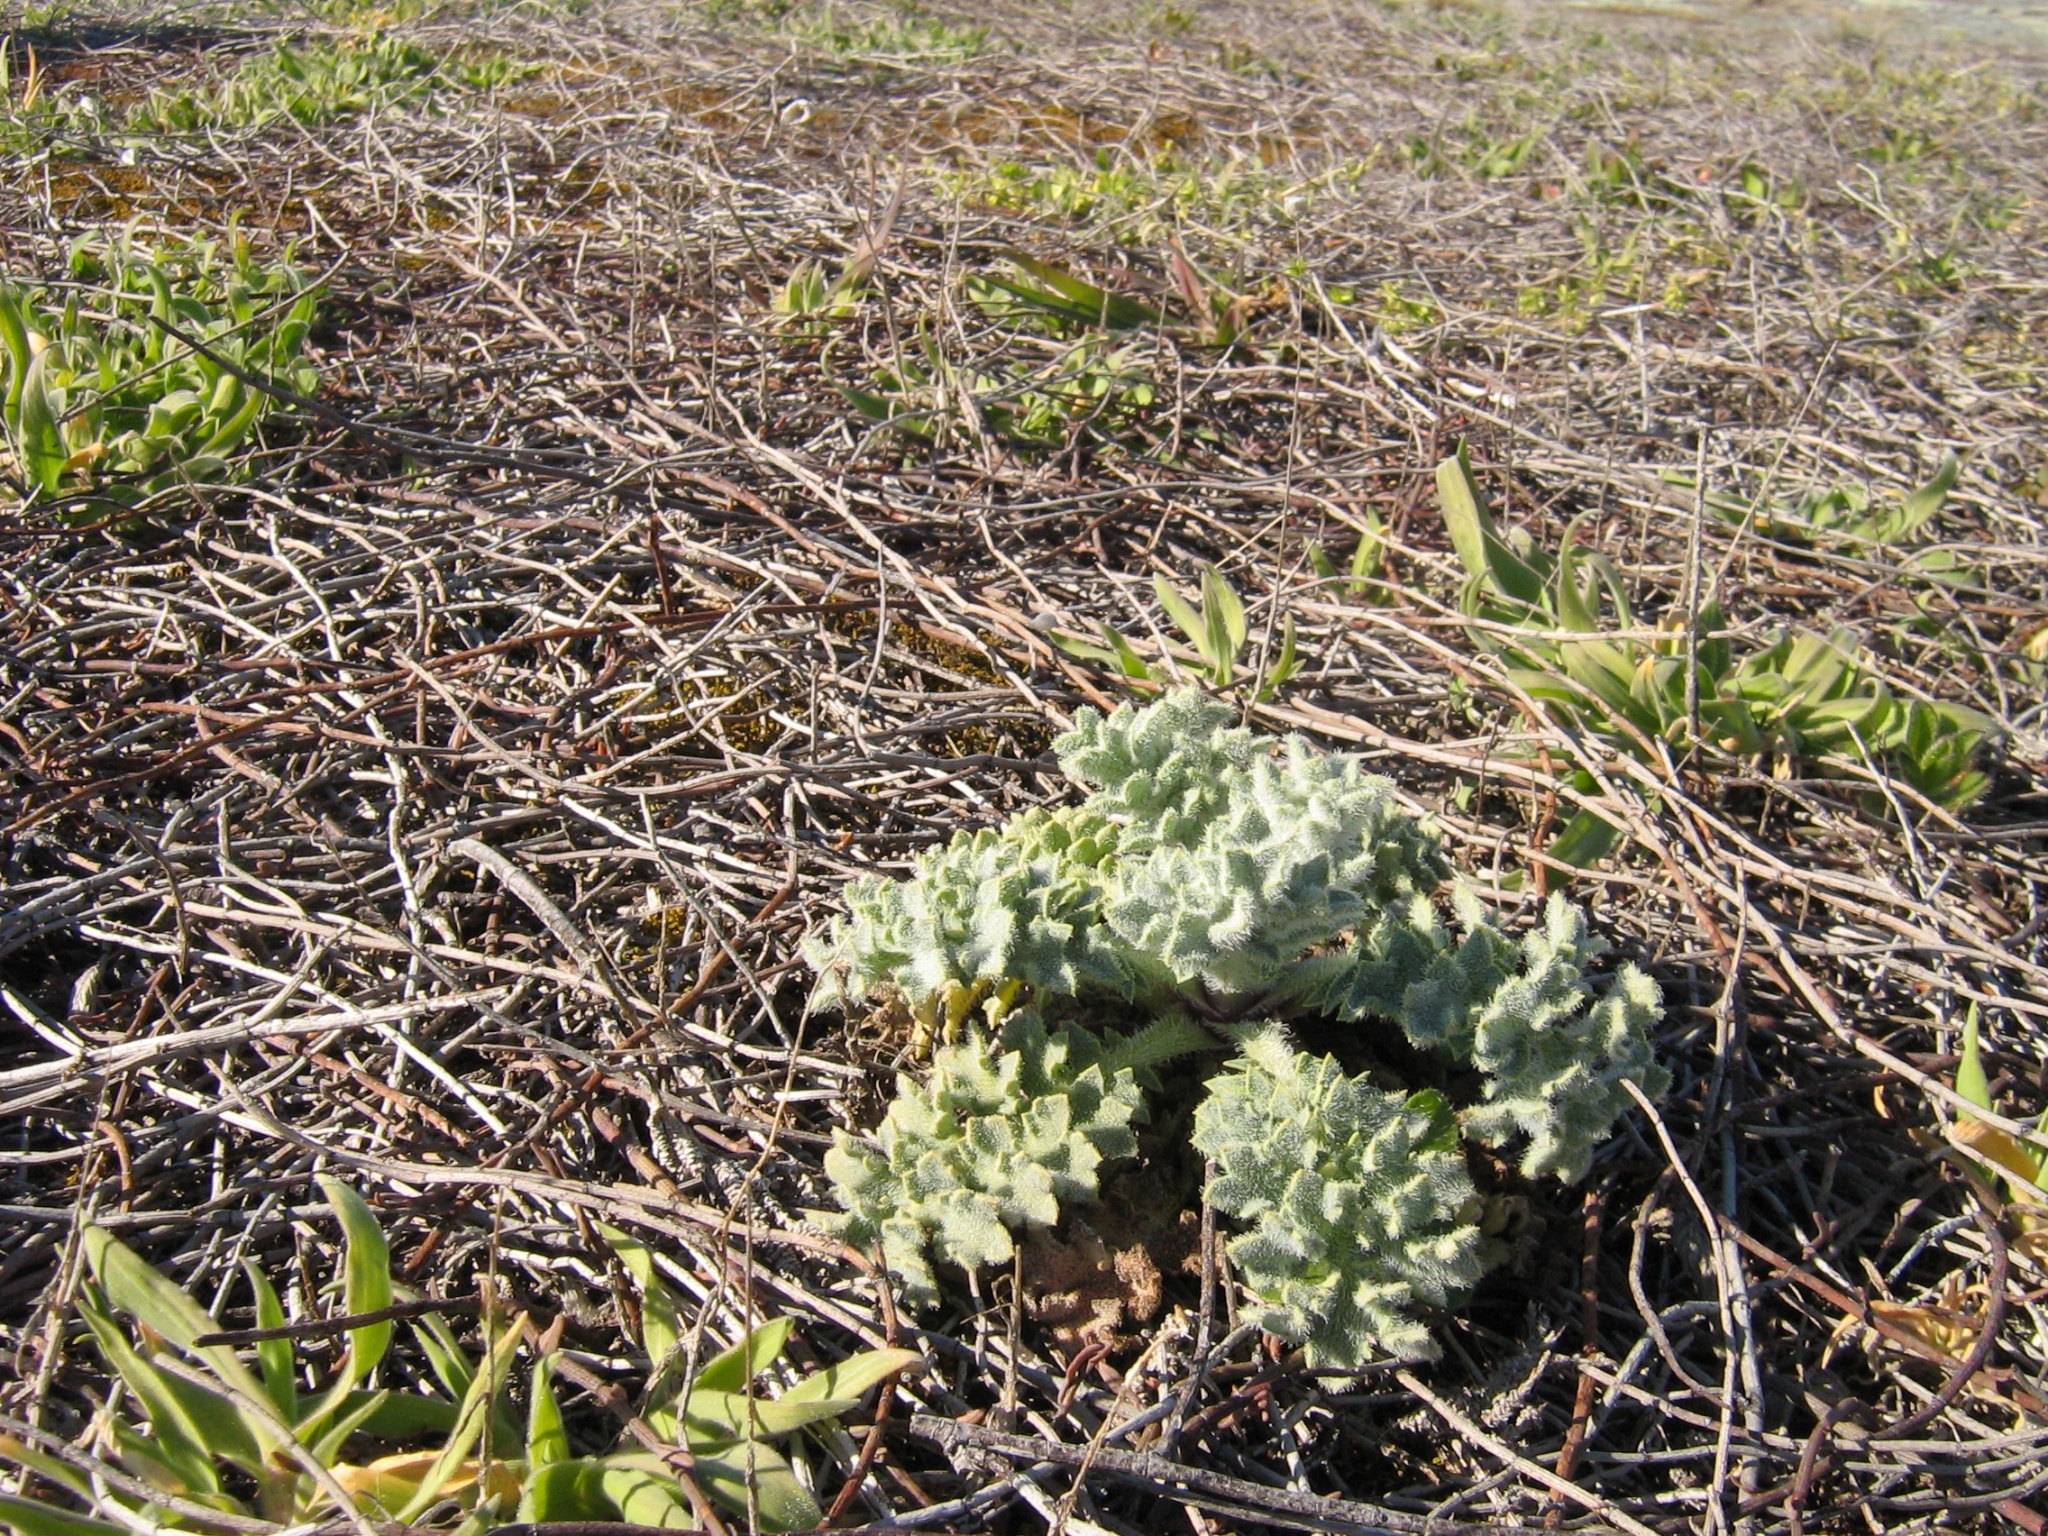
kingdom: Plantae
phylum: Tracheophyta
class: Magnoliopsida
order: Ranunculales
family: Papaveraceae
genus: Glaucium
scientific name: Glaucium flavum
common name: Yellow horned-poppy
